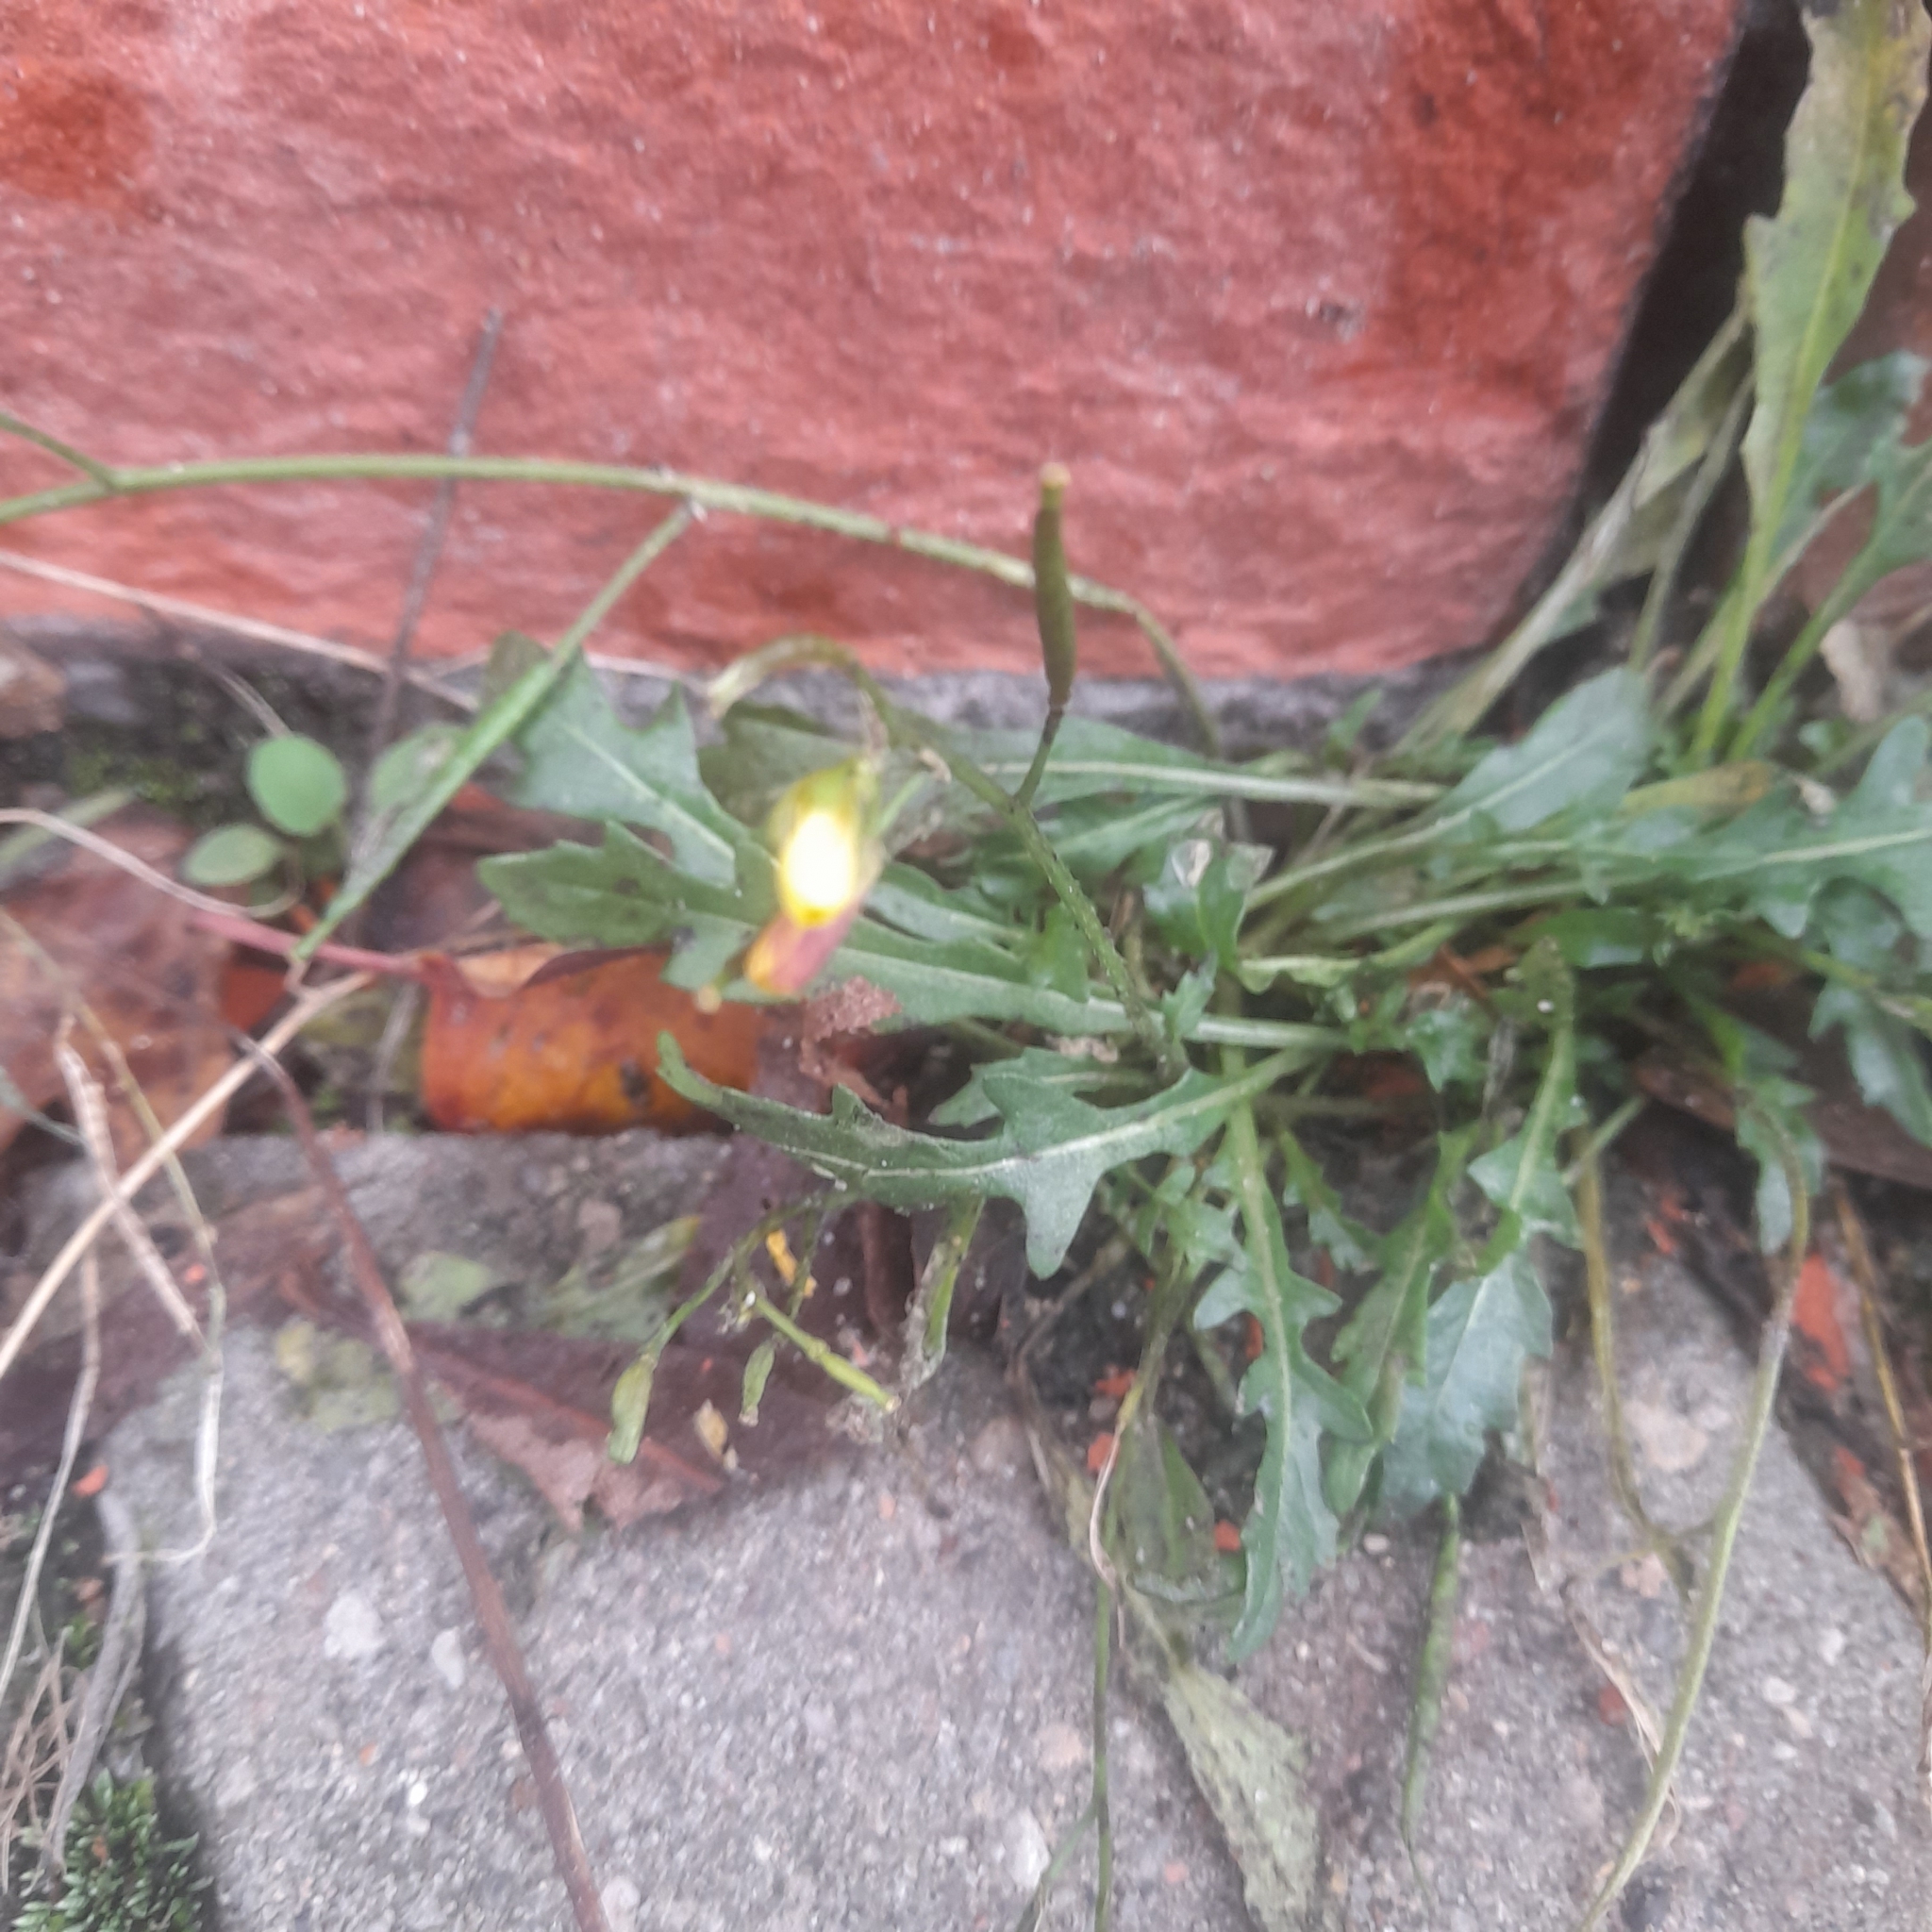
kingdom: Plantae
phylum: Tracheophyta
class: Magnoliopsida
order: Brassicales
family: Brassicaceae
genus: Diplotaxis
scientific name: Diplotaxis muralis
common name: Annual wall-rocket
